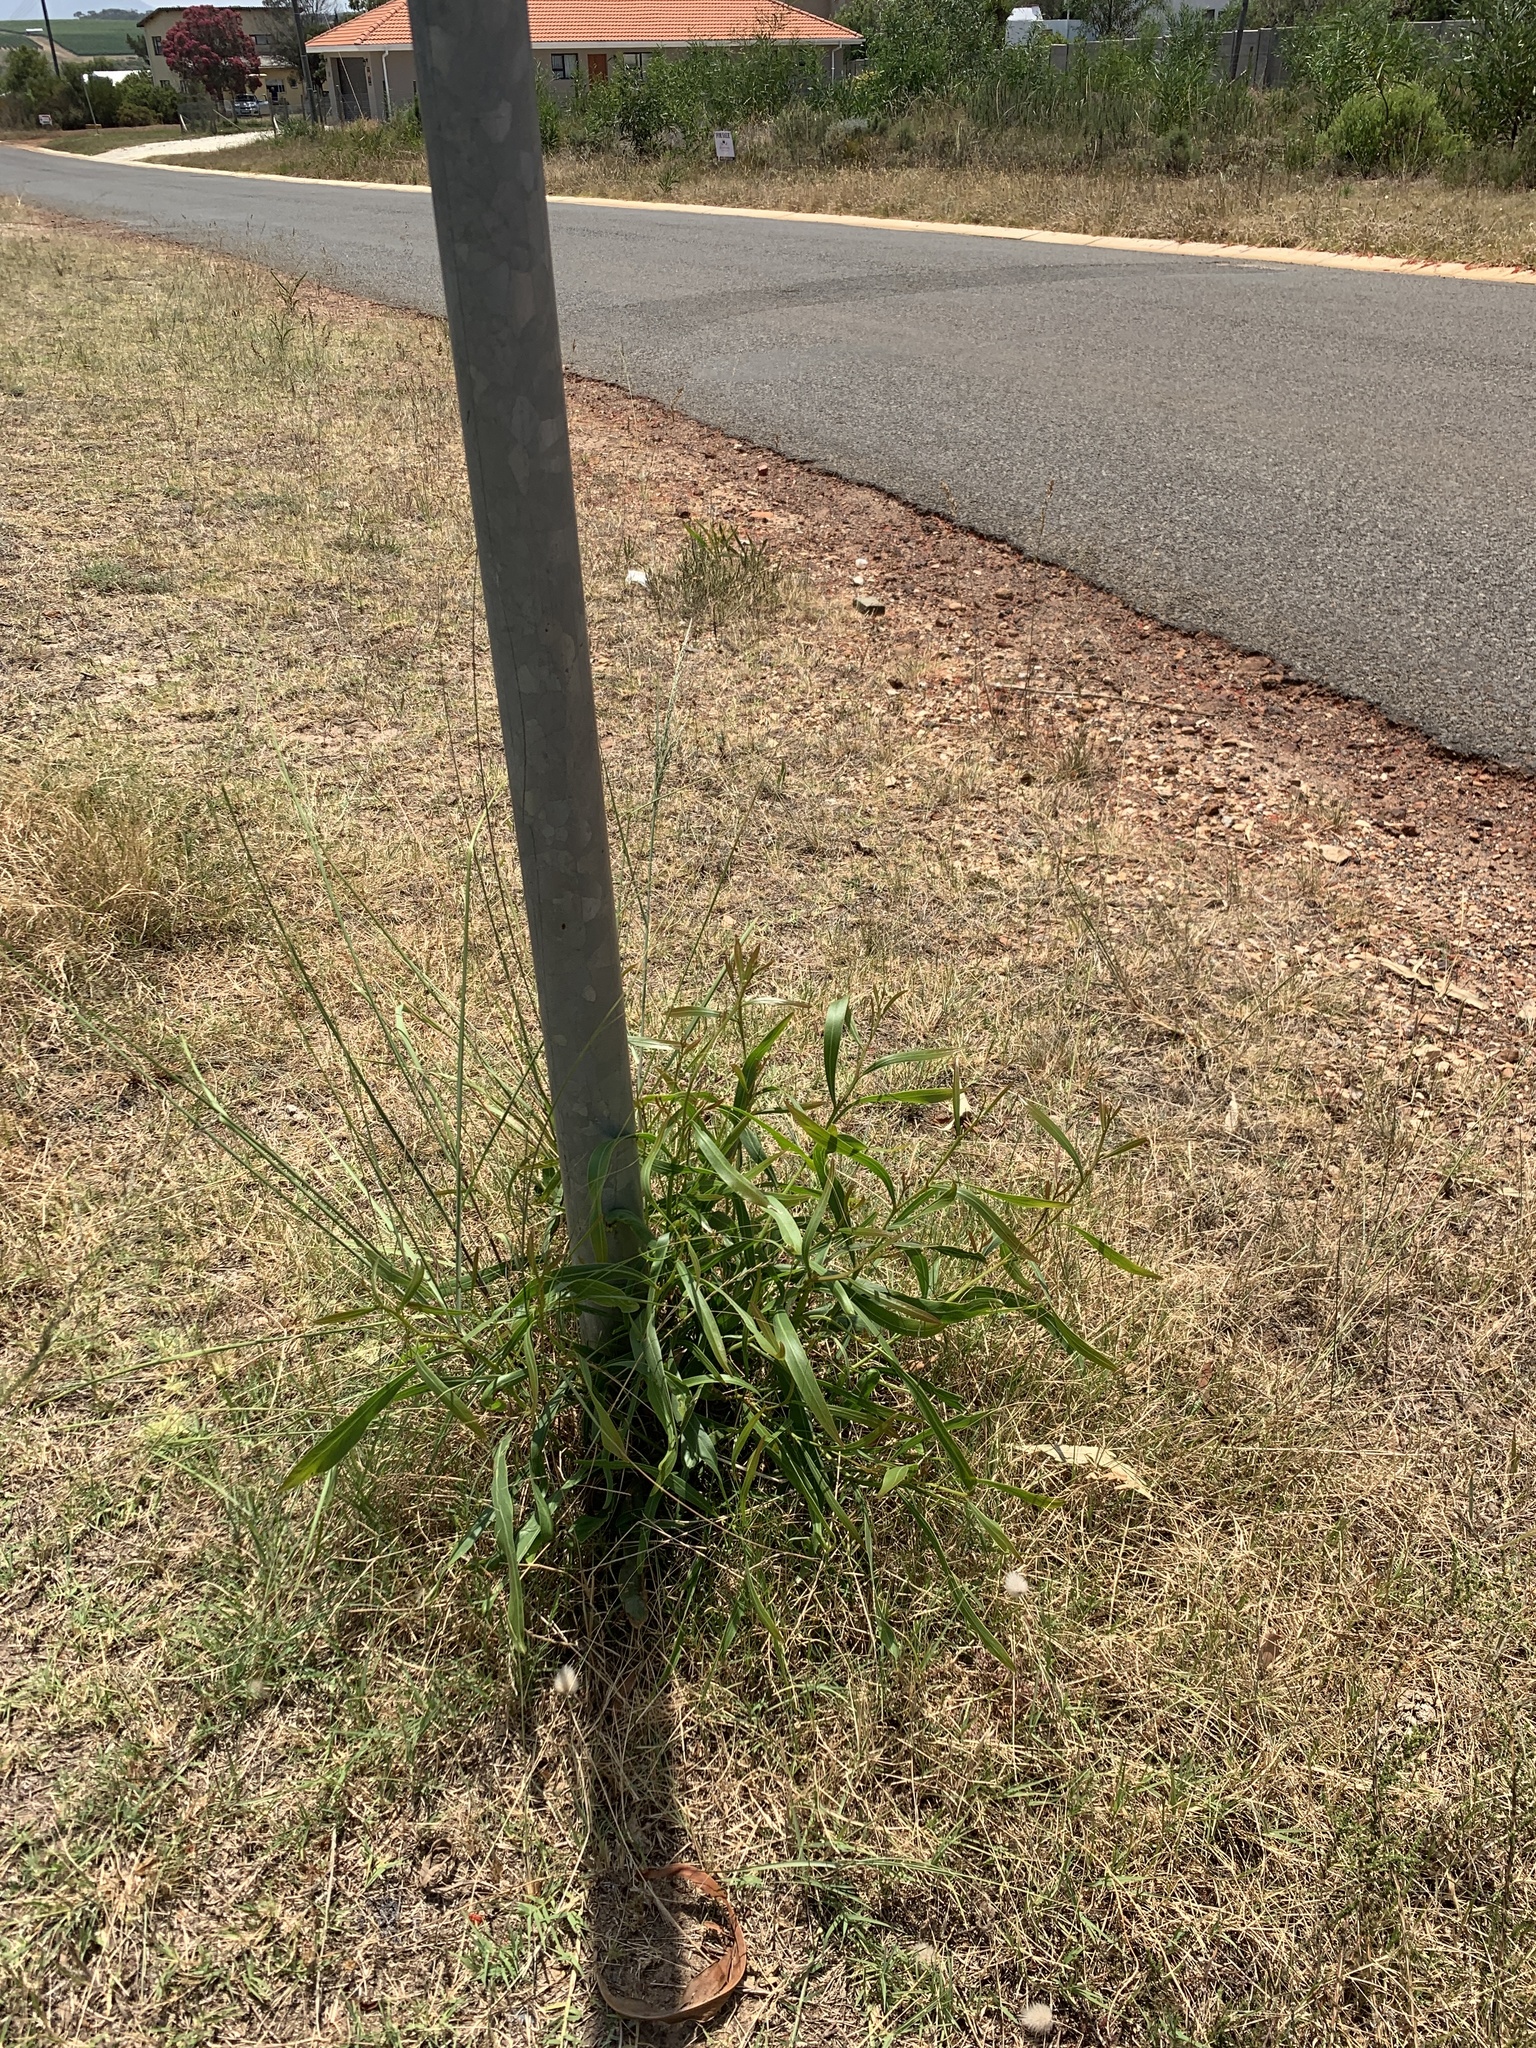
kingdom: Plantae
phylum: Tracheophyta
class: Magnoliopsida
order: Fabales
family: Fabaceae
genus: Acacia
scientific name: Acacia saligna
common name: Orange wattle
